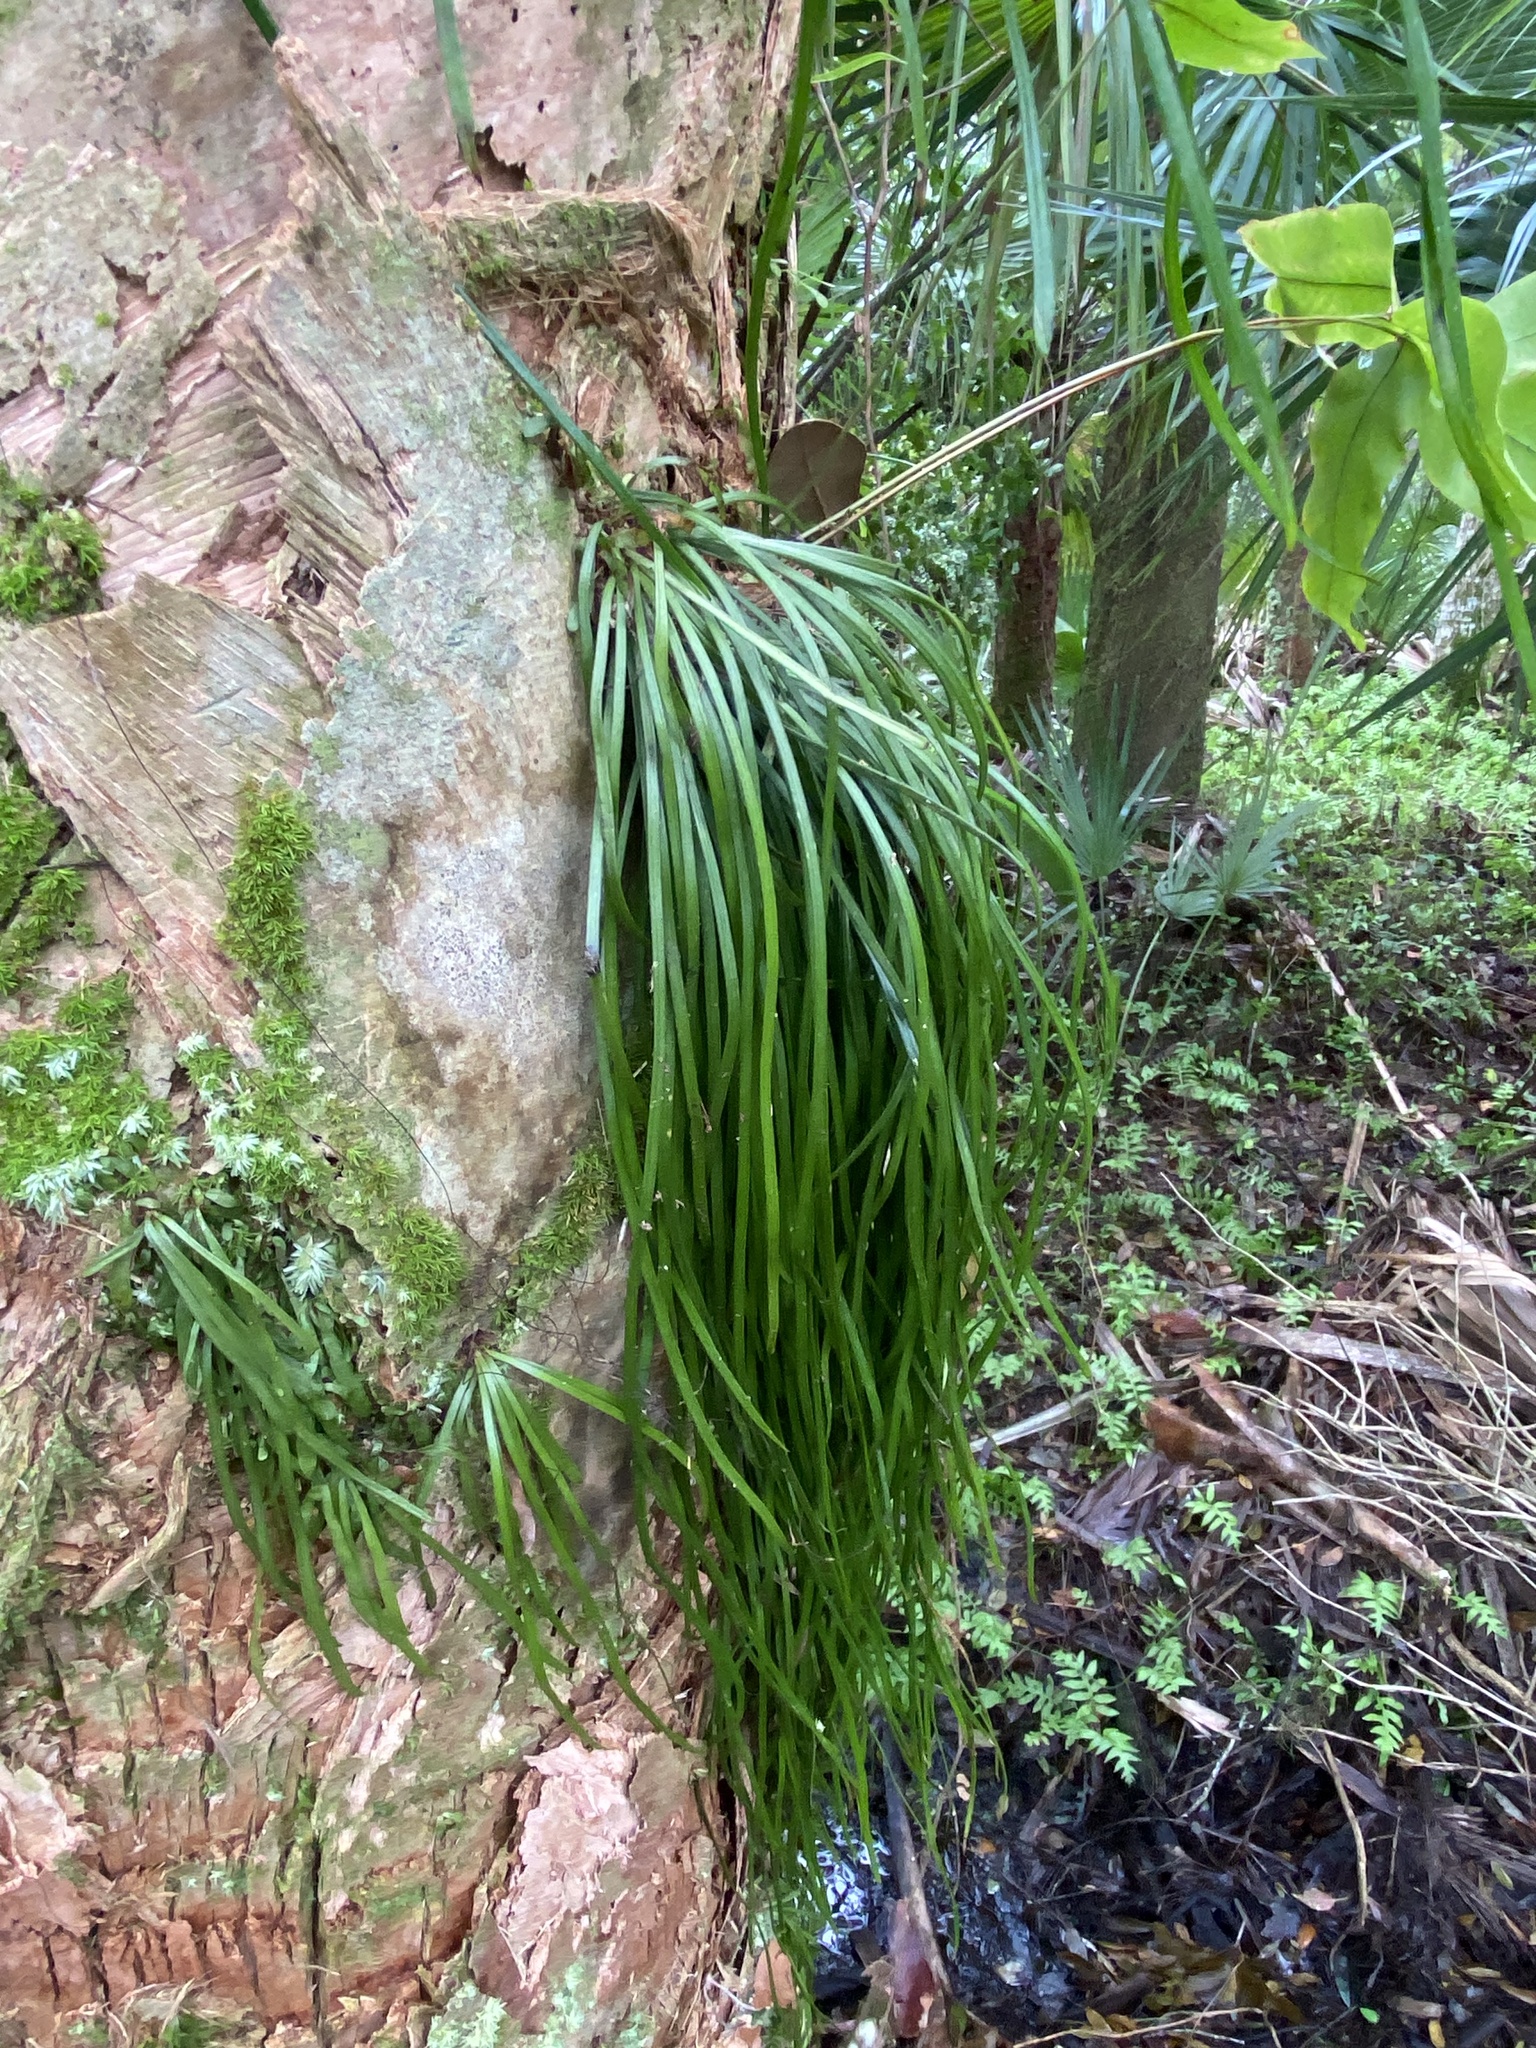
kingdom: Plantae
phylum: Tracheophyta
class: Polypodiopsida
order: Polypodiales
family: Pteridaceae
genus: Vittaria
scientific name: Vittaria lineata
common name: Shoestring fern
